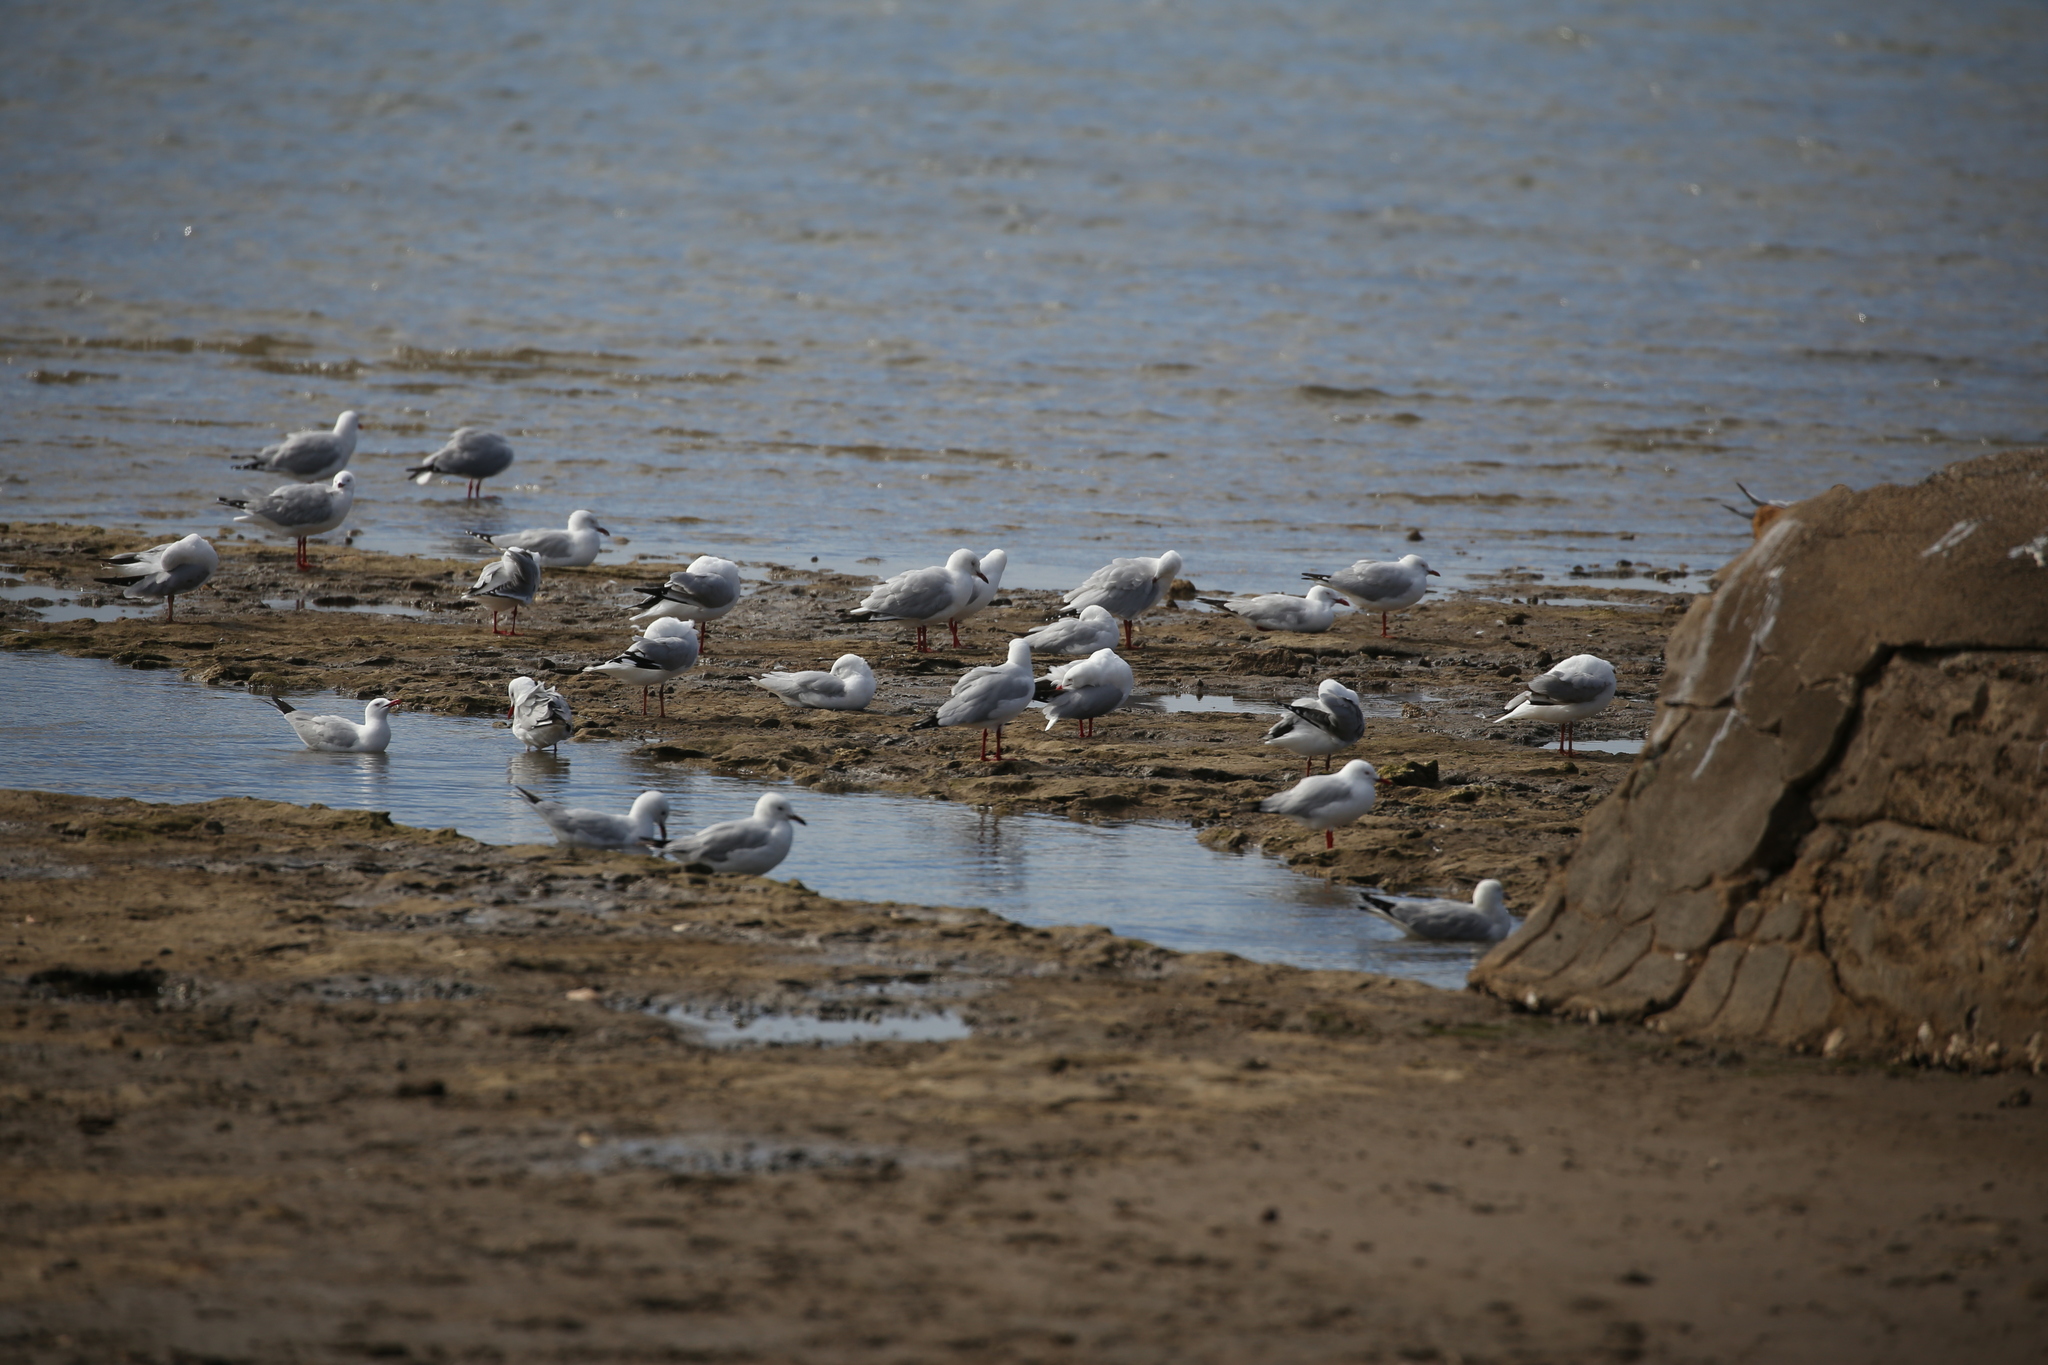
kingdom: Animalia
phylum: Chordata
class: Aves
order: Charadriiformes
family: Laridae
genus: Chroicocephalus
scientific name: Chroicocephalus novaehollandiae
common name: Silver gull
